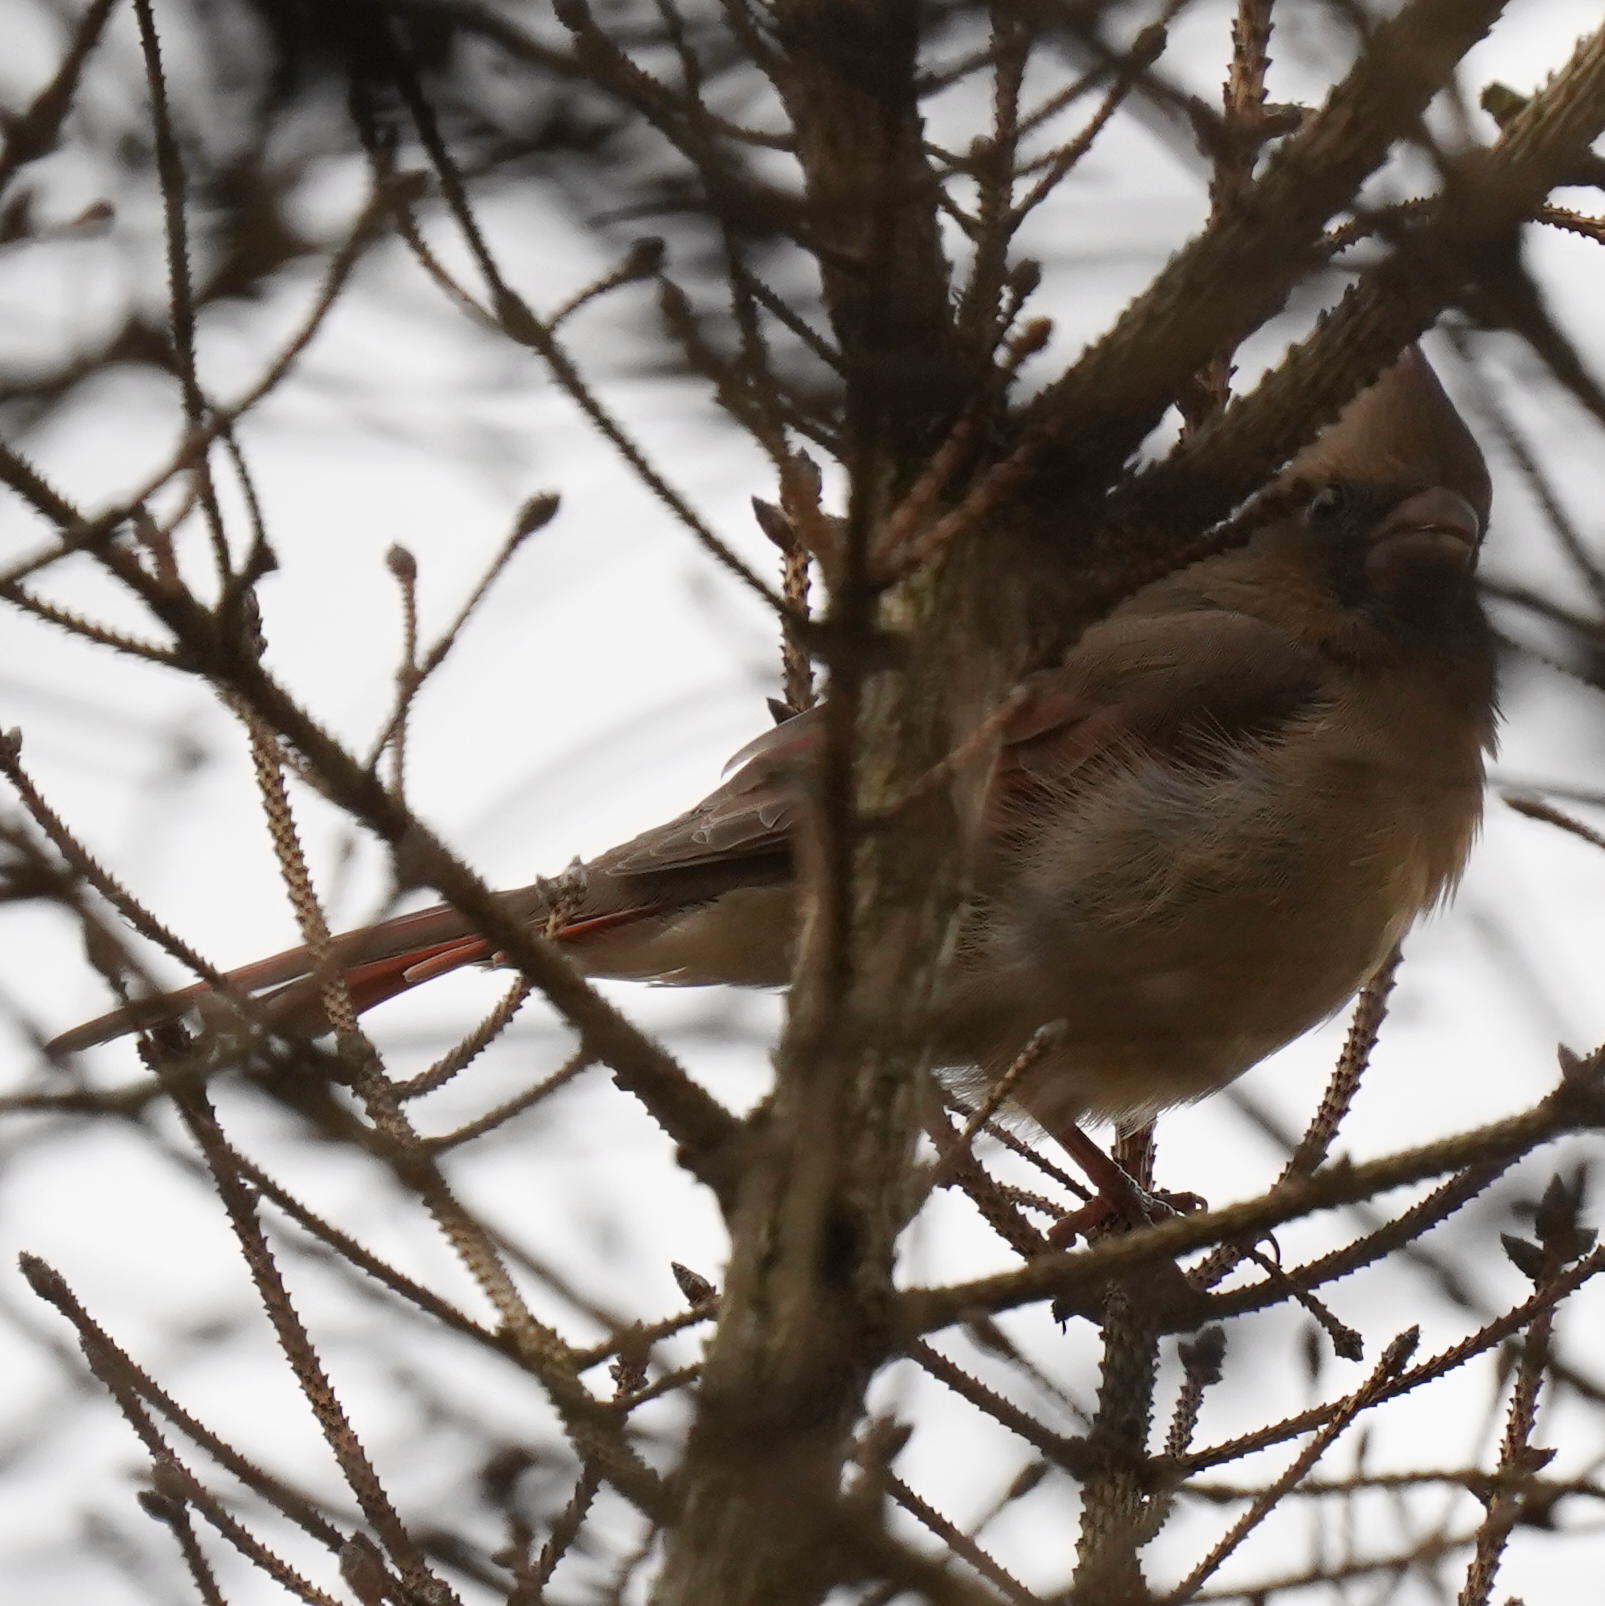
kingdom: Animalia
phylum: Chordata
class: Aves
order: Passeriformes
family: Cardinalidae
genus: Cardinalis
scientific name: Cardinalis cardinalis
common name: Northern cardinal
